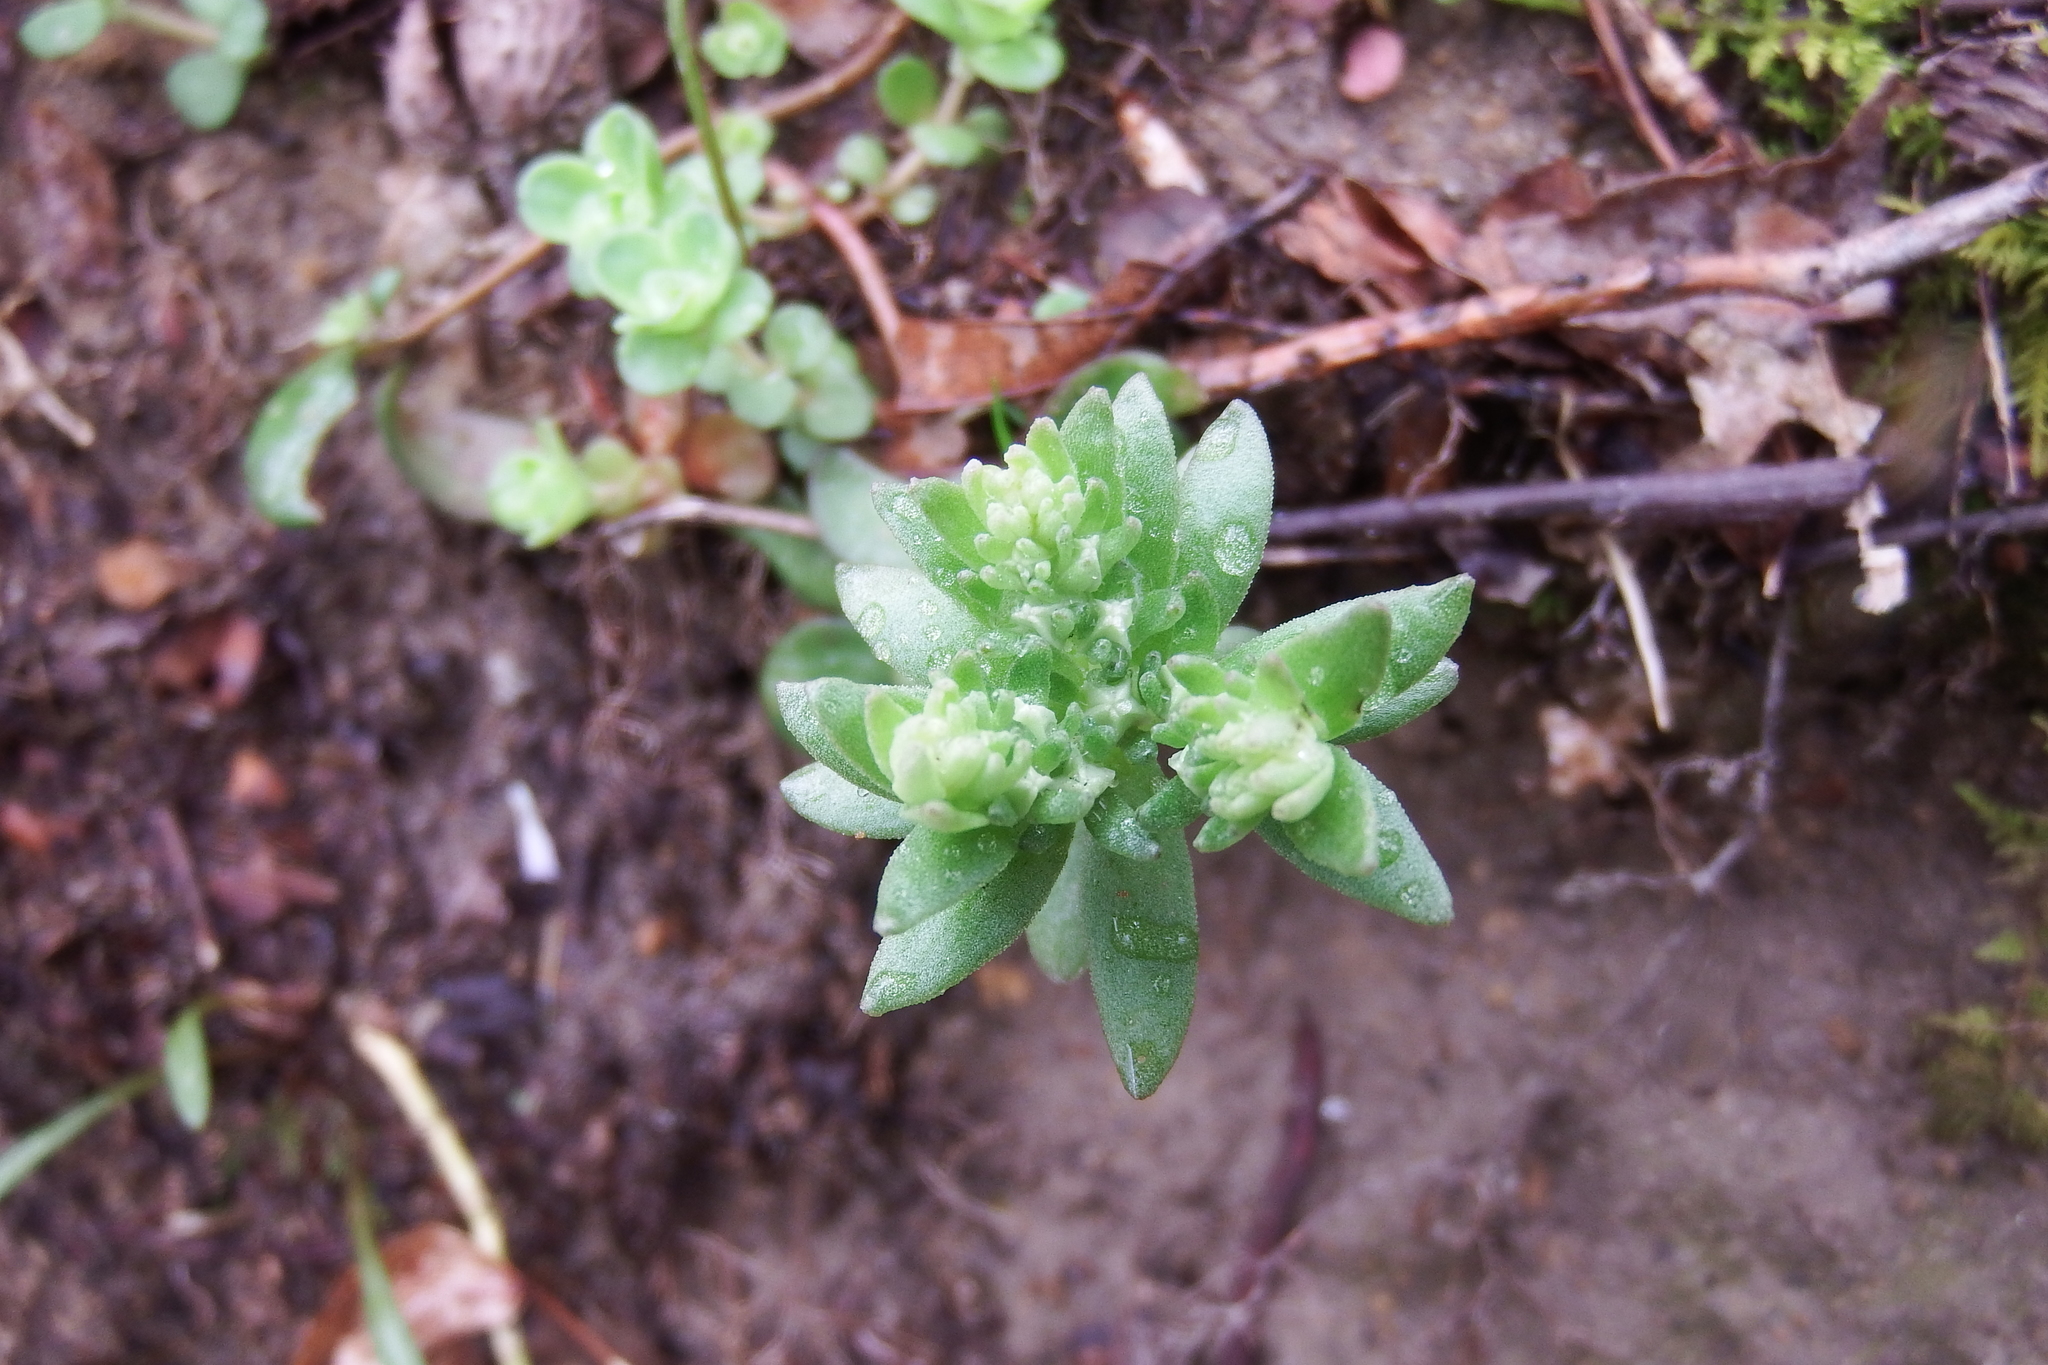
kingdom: Plantae
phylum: Tracheophyta
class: Magnoliopsida
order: Saxifragales
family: Crassulaceae
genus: Sedum
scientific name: Sedum ternatum
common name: Wild stonecrop
